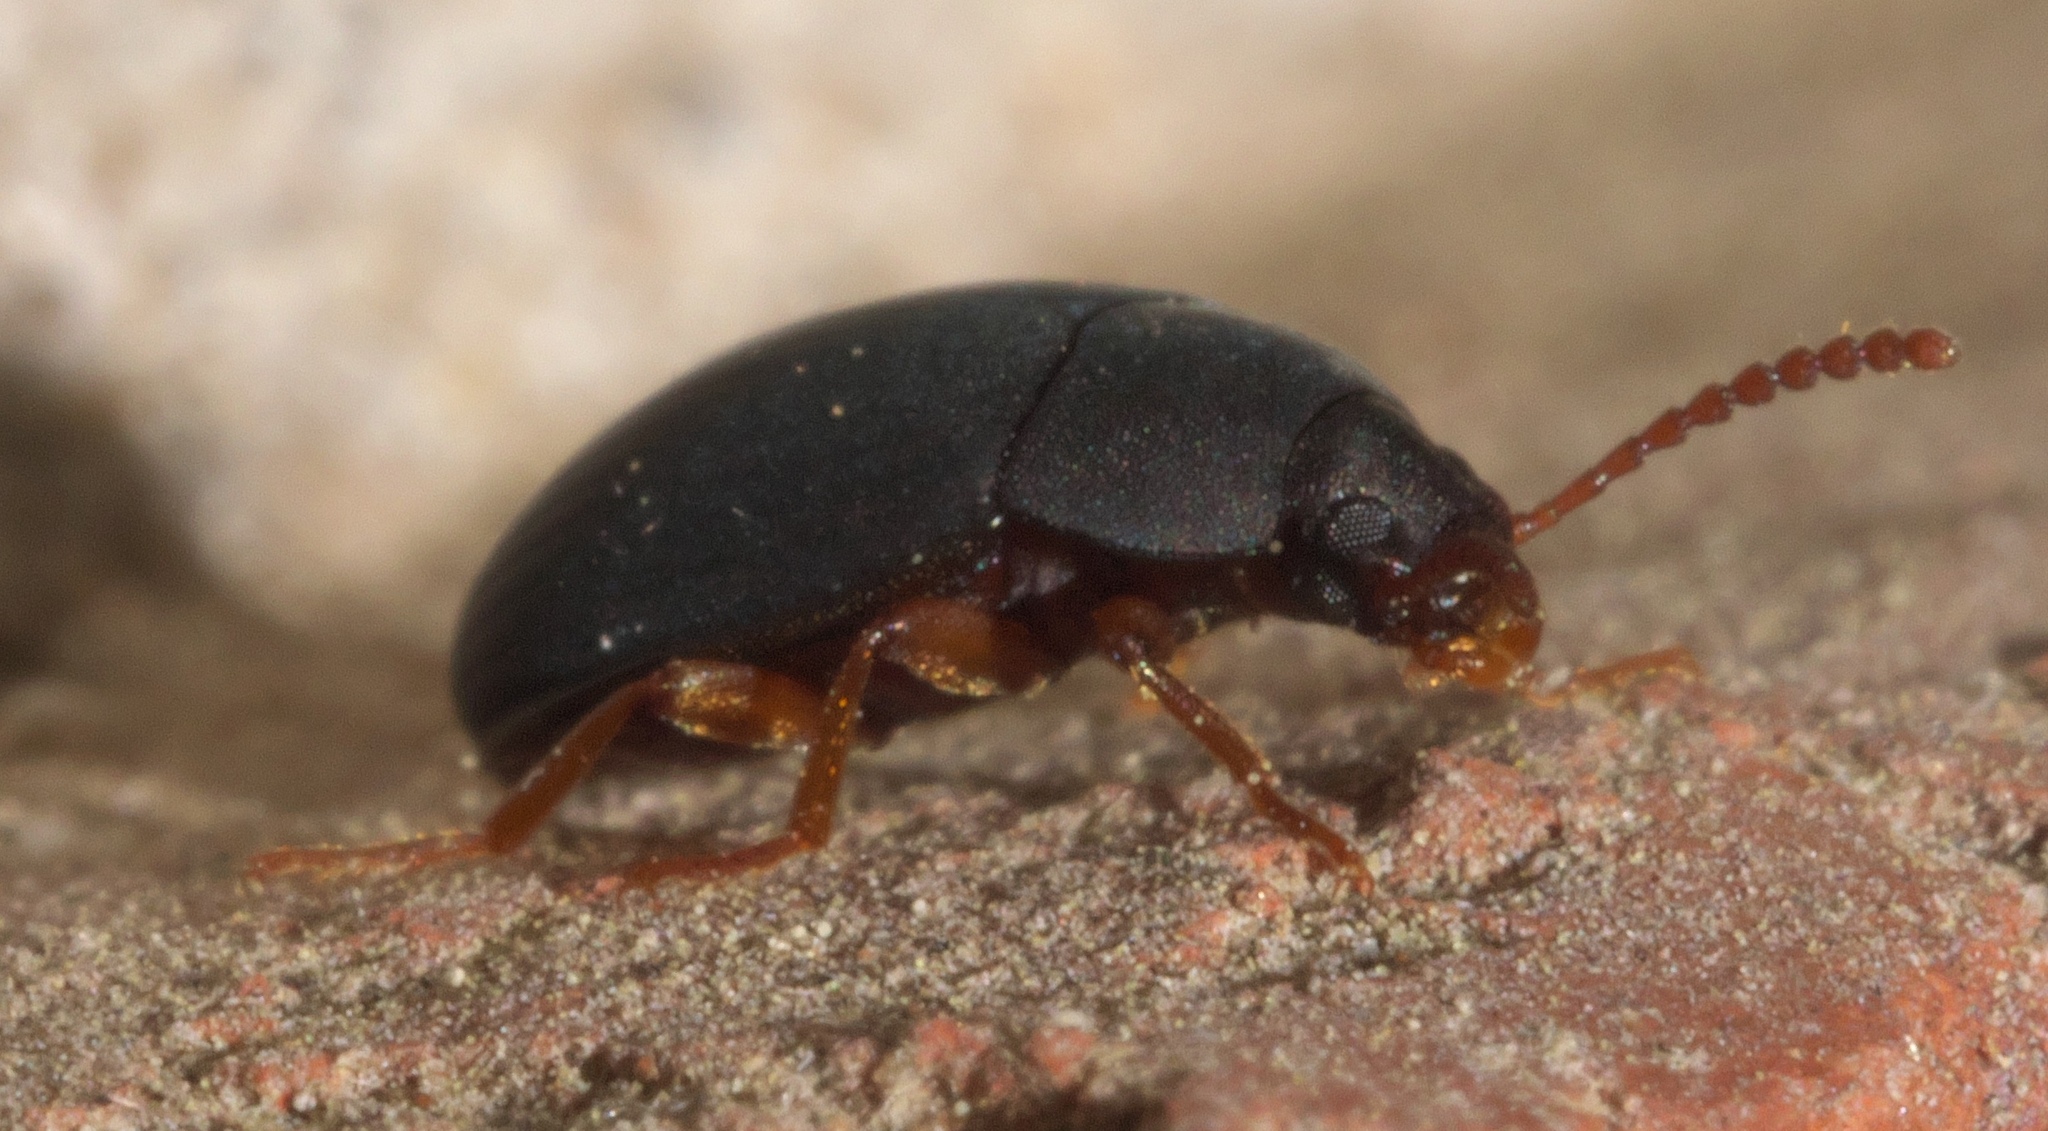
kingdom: Animalia
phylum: Arthropoda
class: Insecta
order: Coleoptera
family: Tenebrionidae
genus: Platydema
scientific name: Platydema ruficornis
